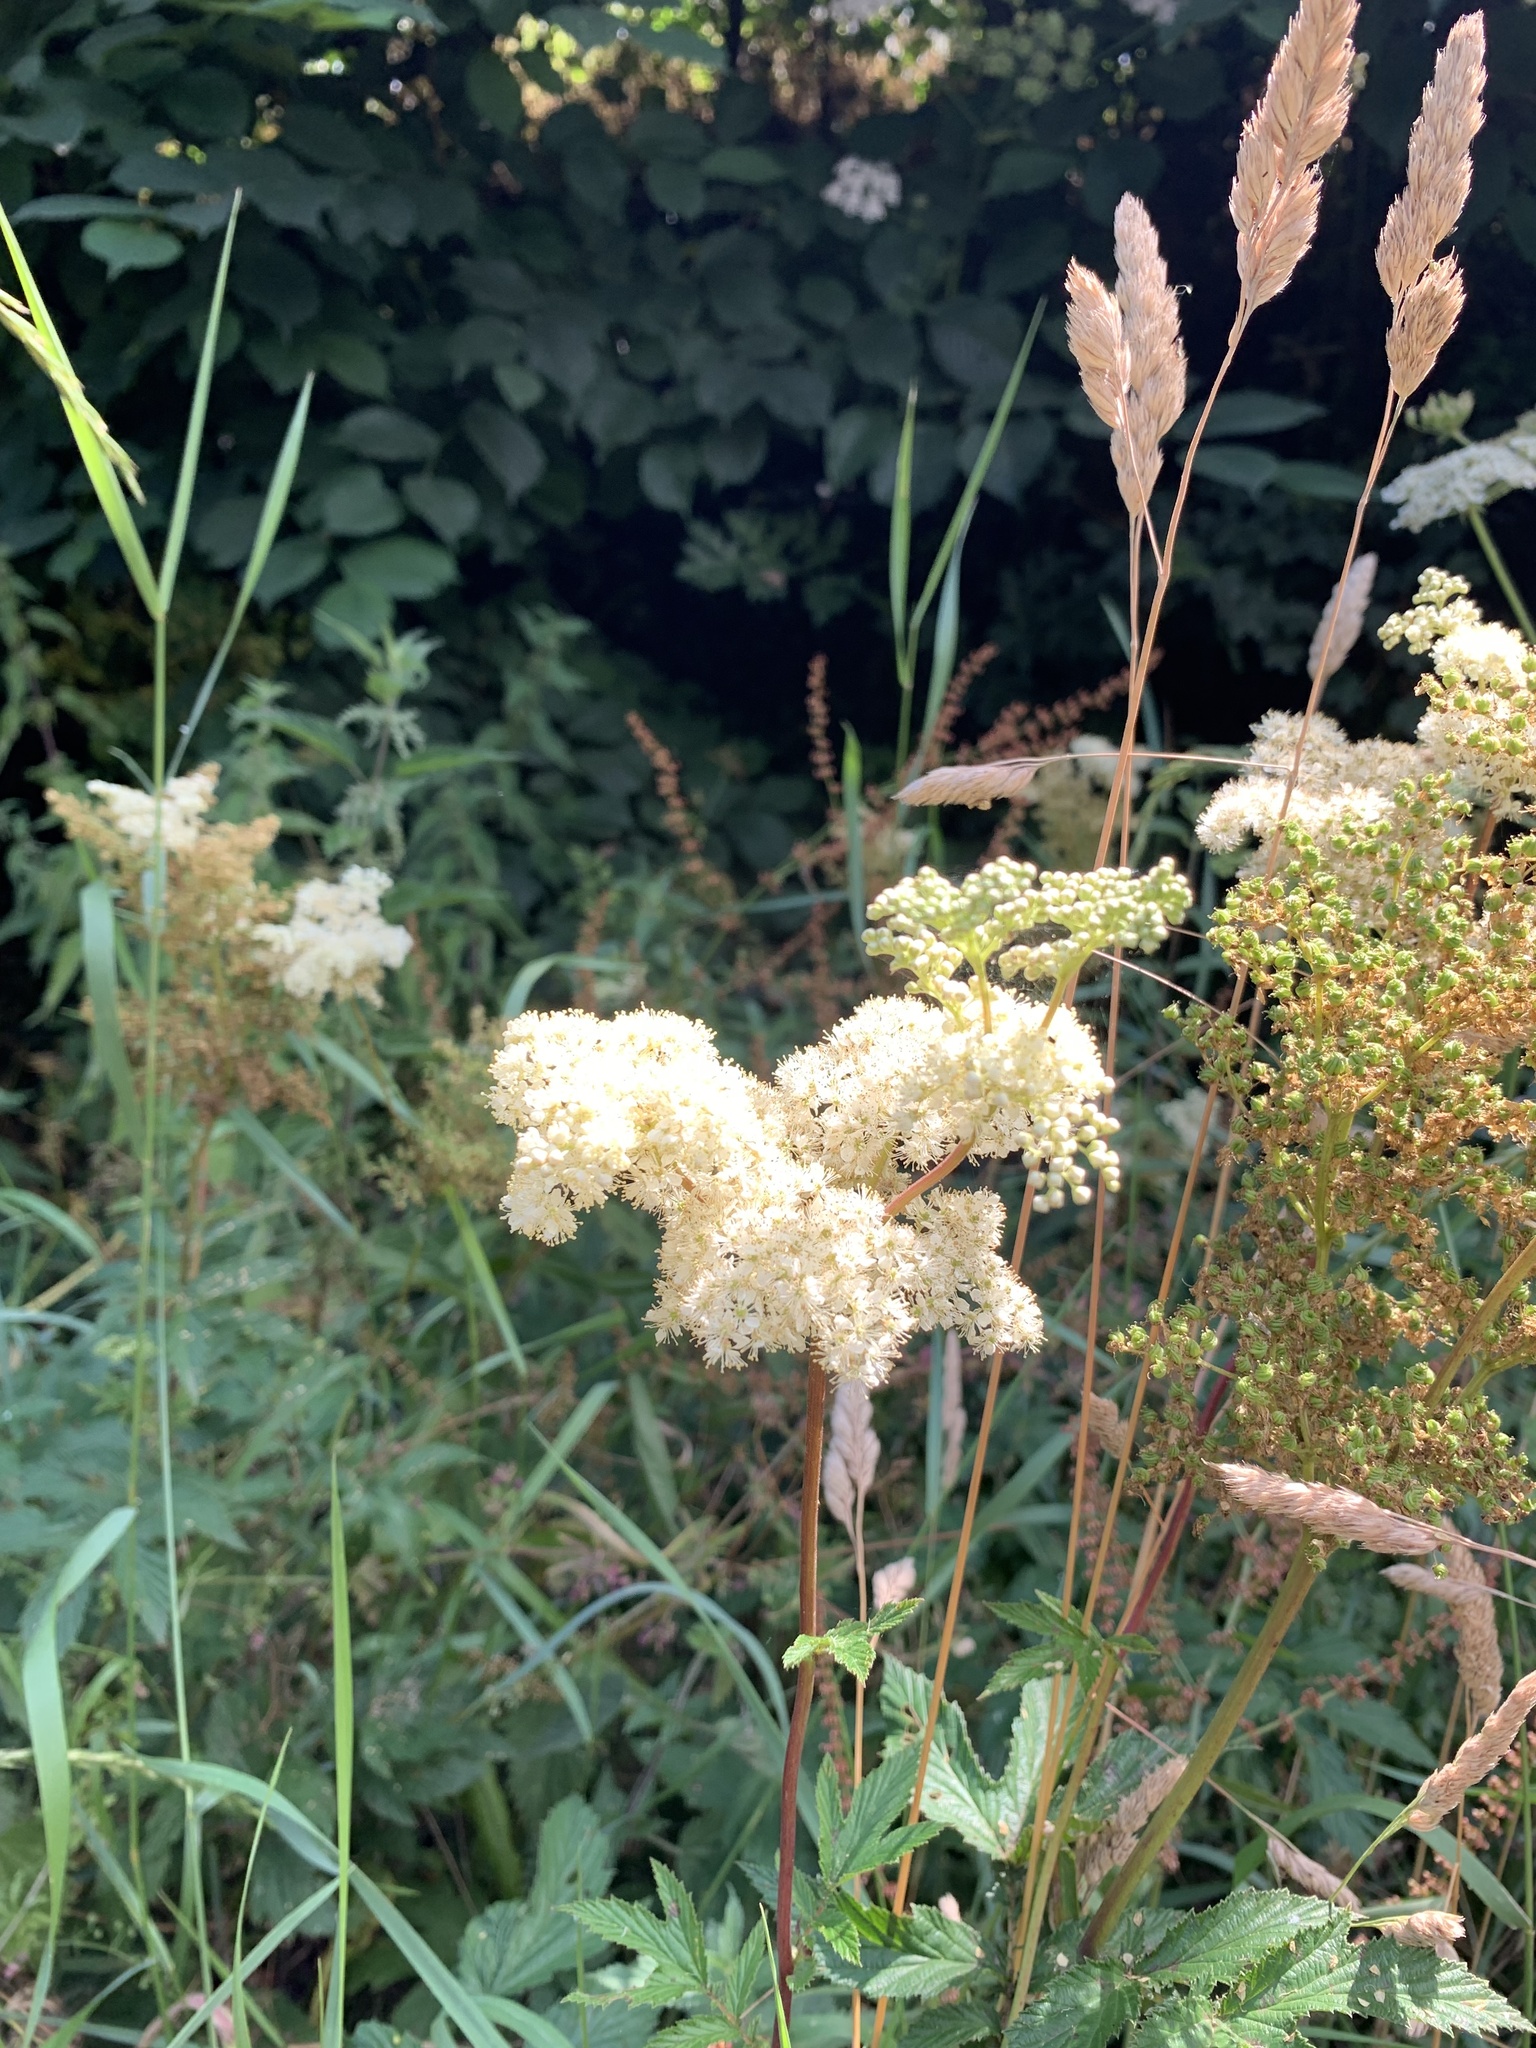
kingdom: Plantae
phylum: Tracheophyta
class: Magnoliopsida
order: Rosales
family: Rosaceae
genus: Filipendula
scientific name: Filipendula ulmaria
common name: Meadowsweet
